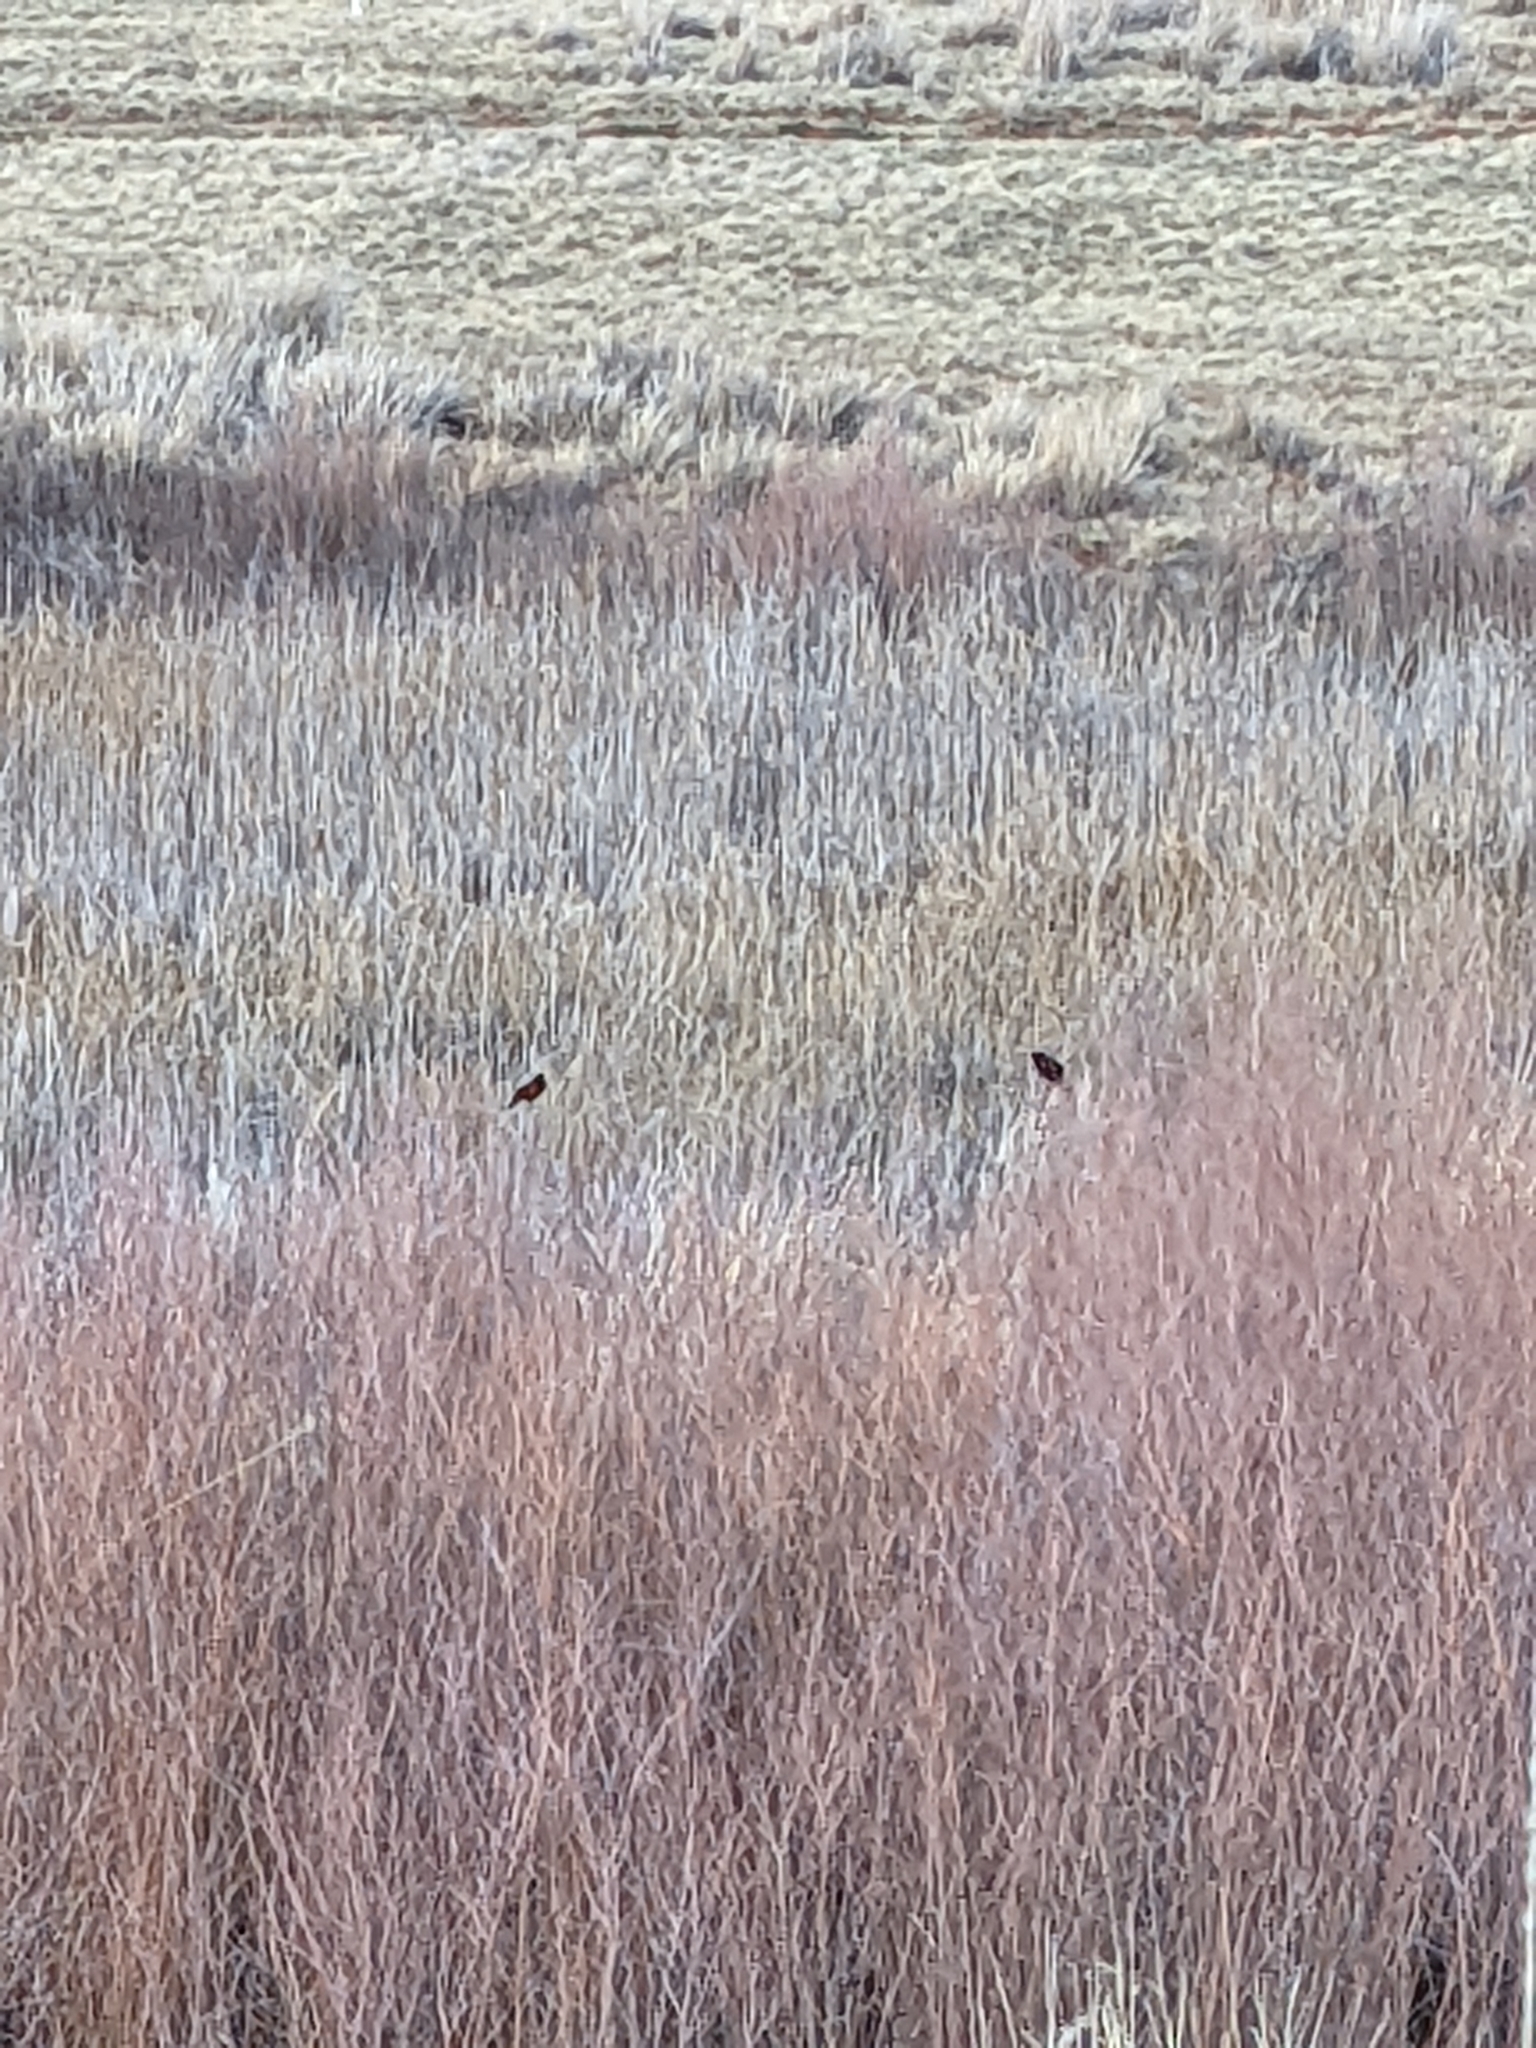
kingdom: Animalia
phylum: Chordata
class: Aves
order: Passeriformes
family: Icteridae
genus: Agelaius
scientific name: Agelaius phoeniceus
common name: Red-winged blackbird
